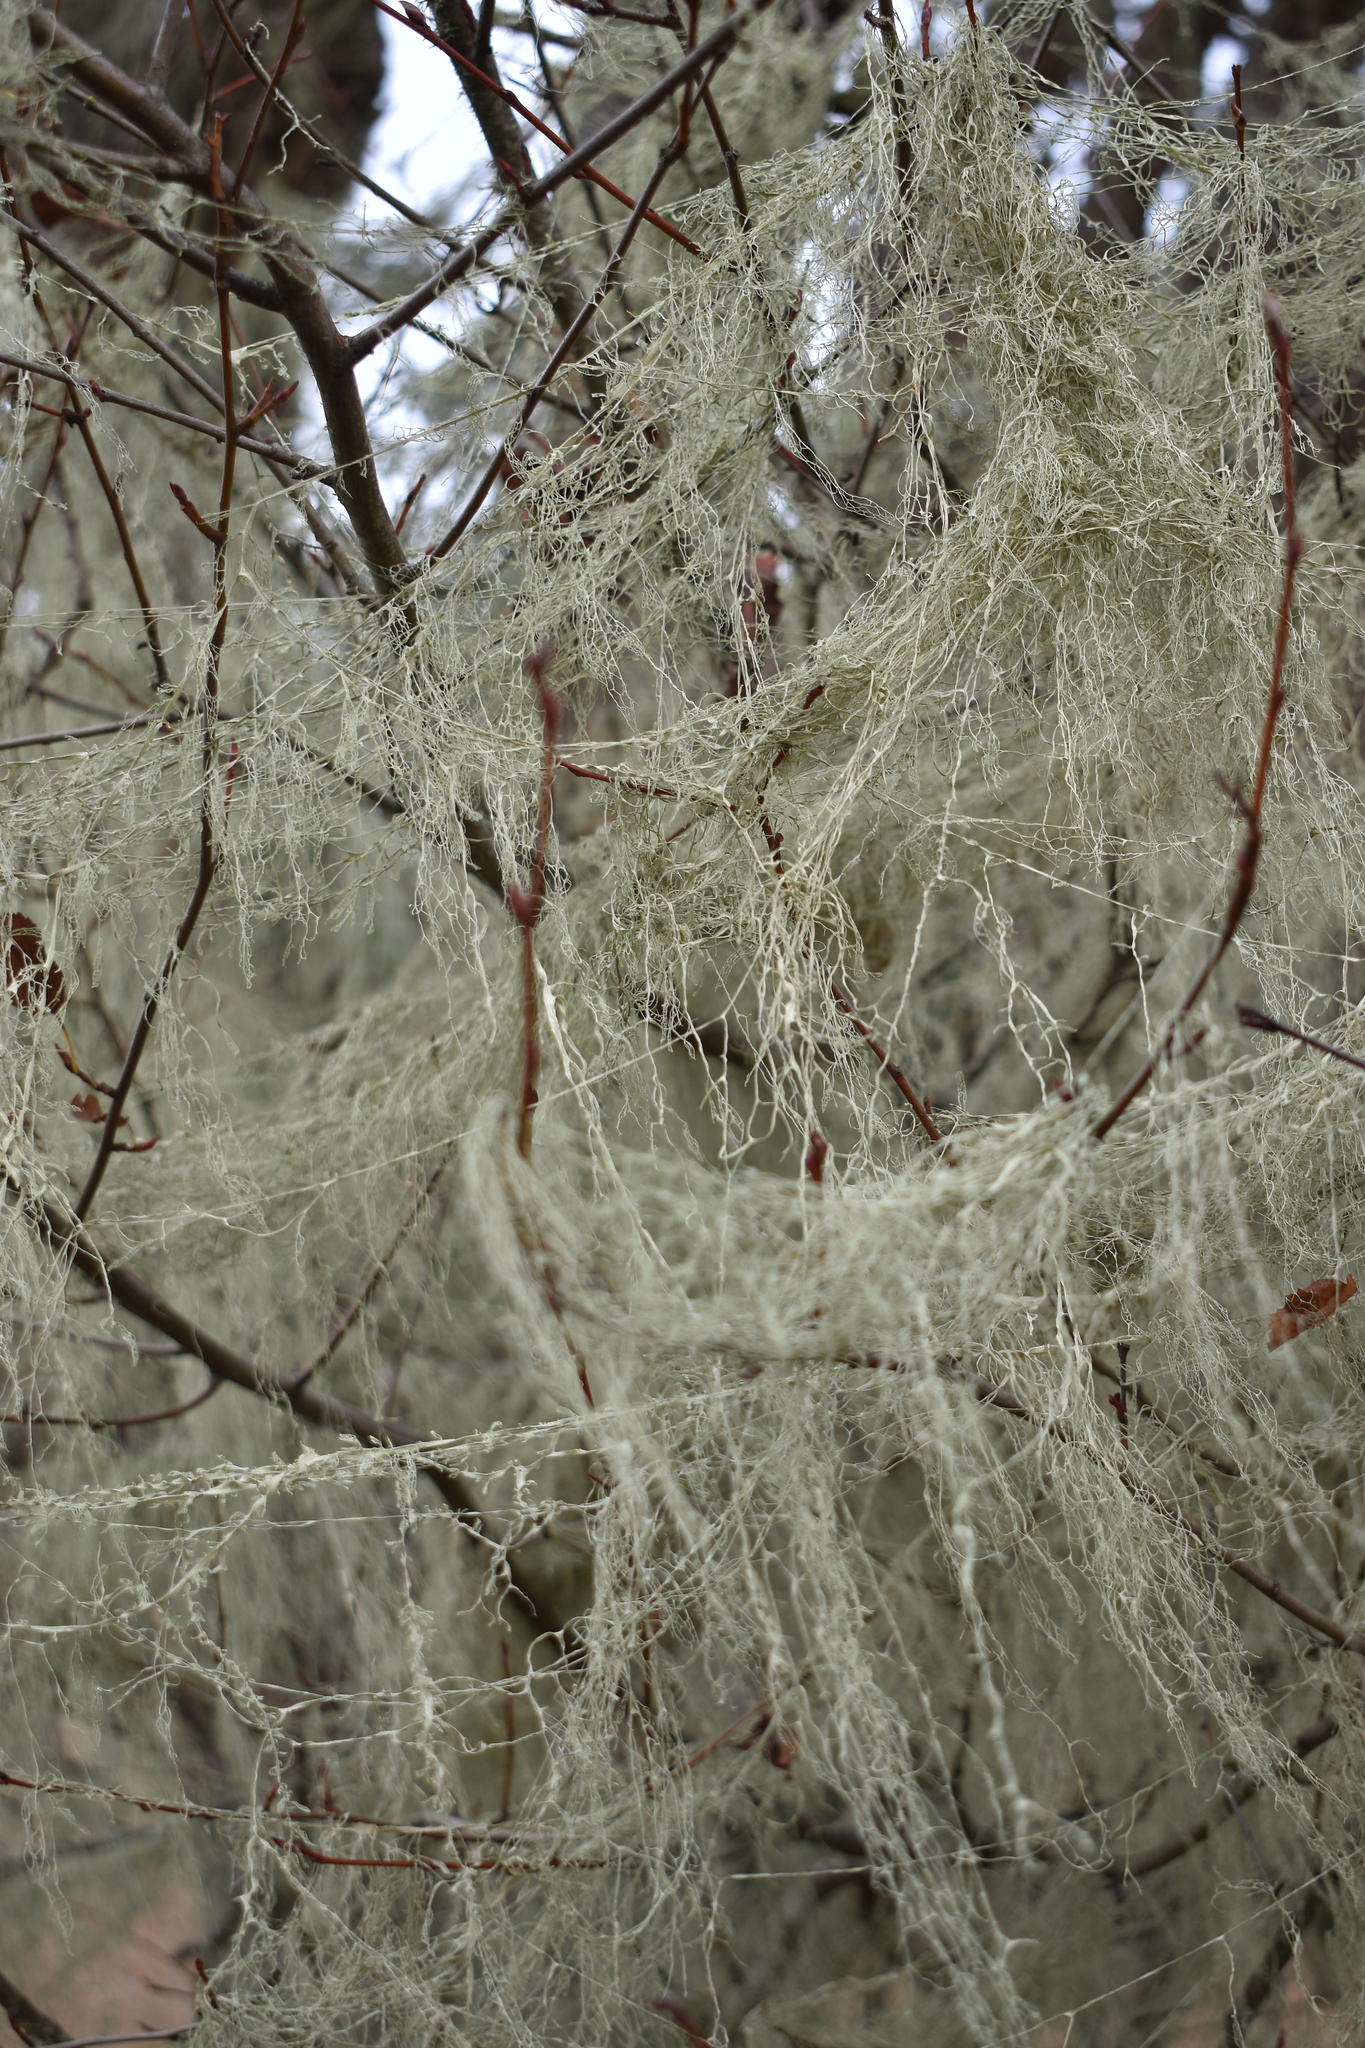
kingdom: Fungi
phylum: Ascomycota
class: Lecanoromycetes
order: Lecanorales
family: Ramalinaceae
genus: Ramalina
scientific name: Ramalina menziesii
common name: Lace lichen
